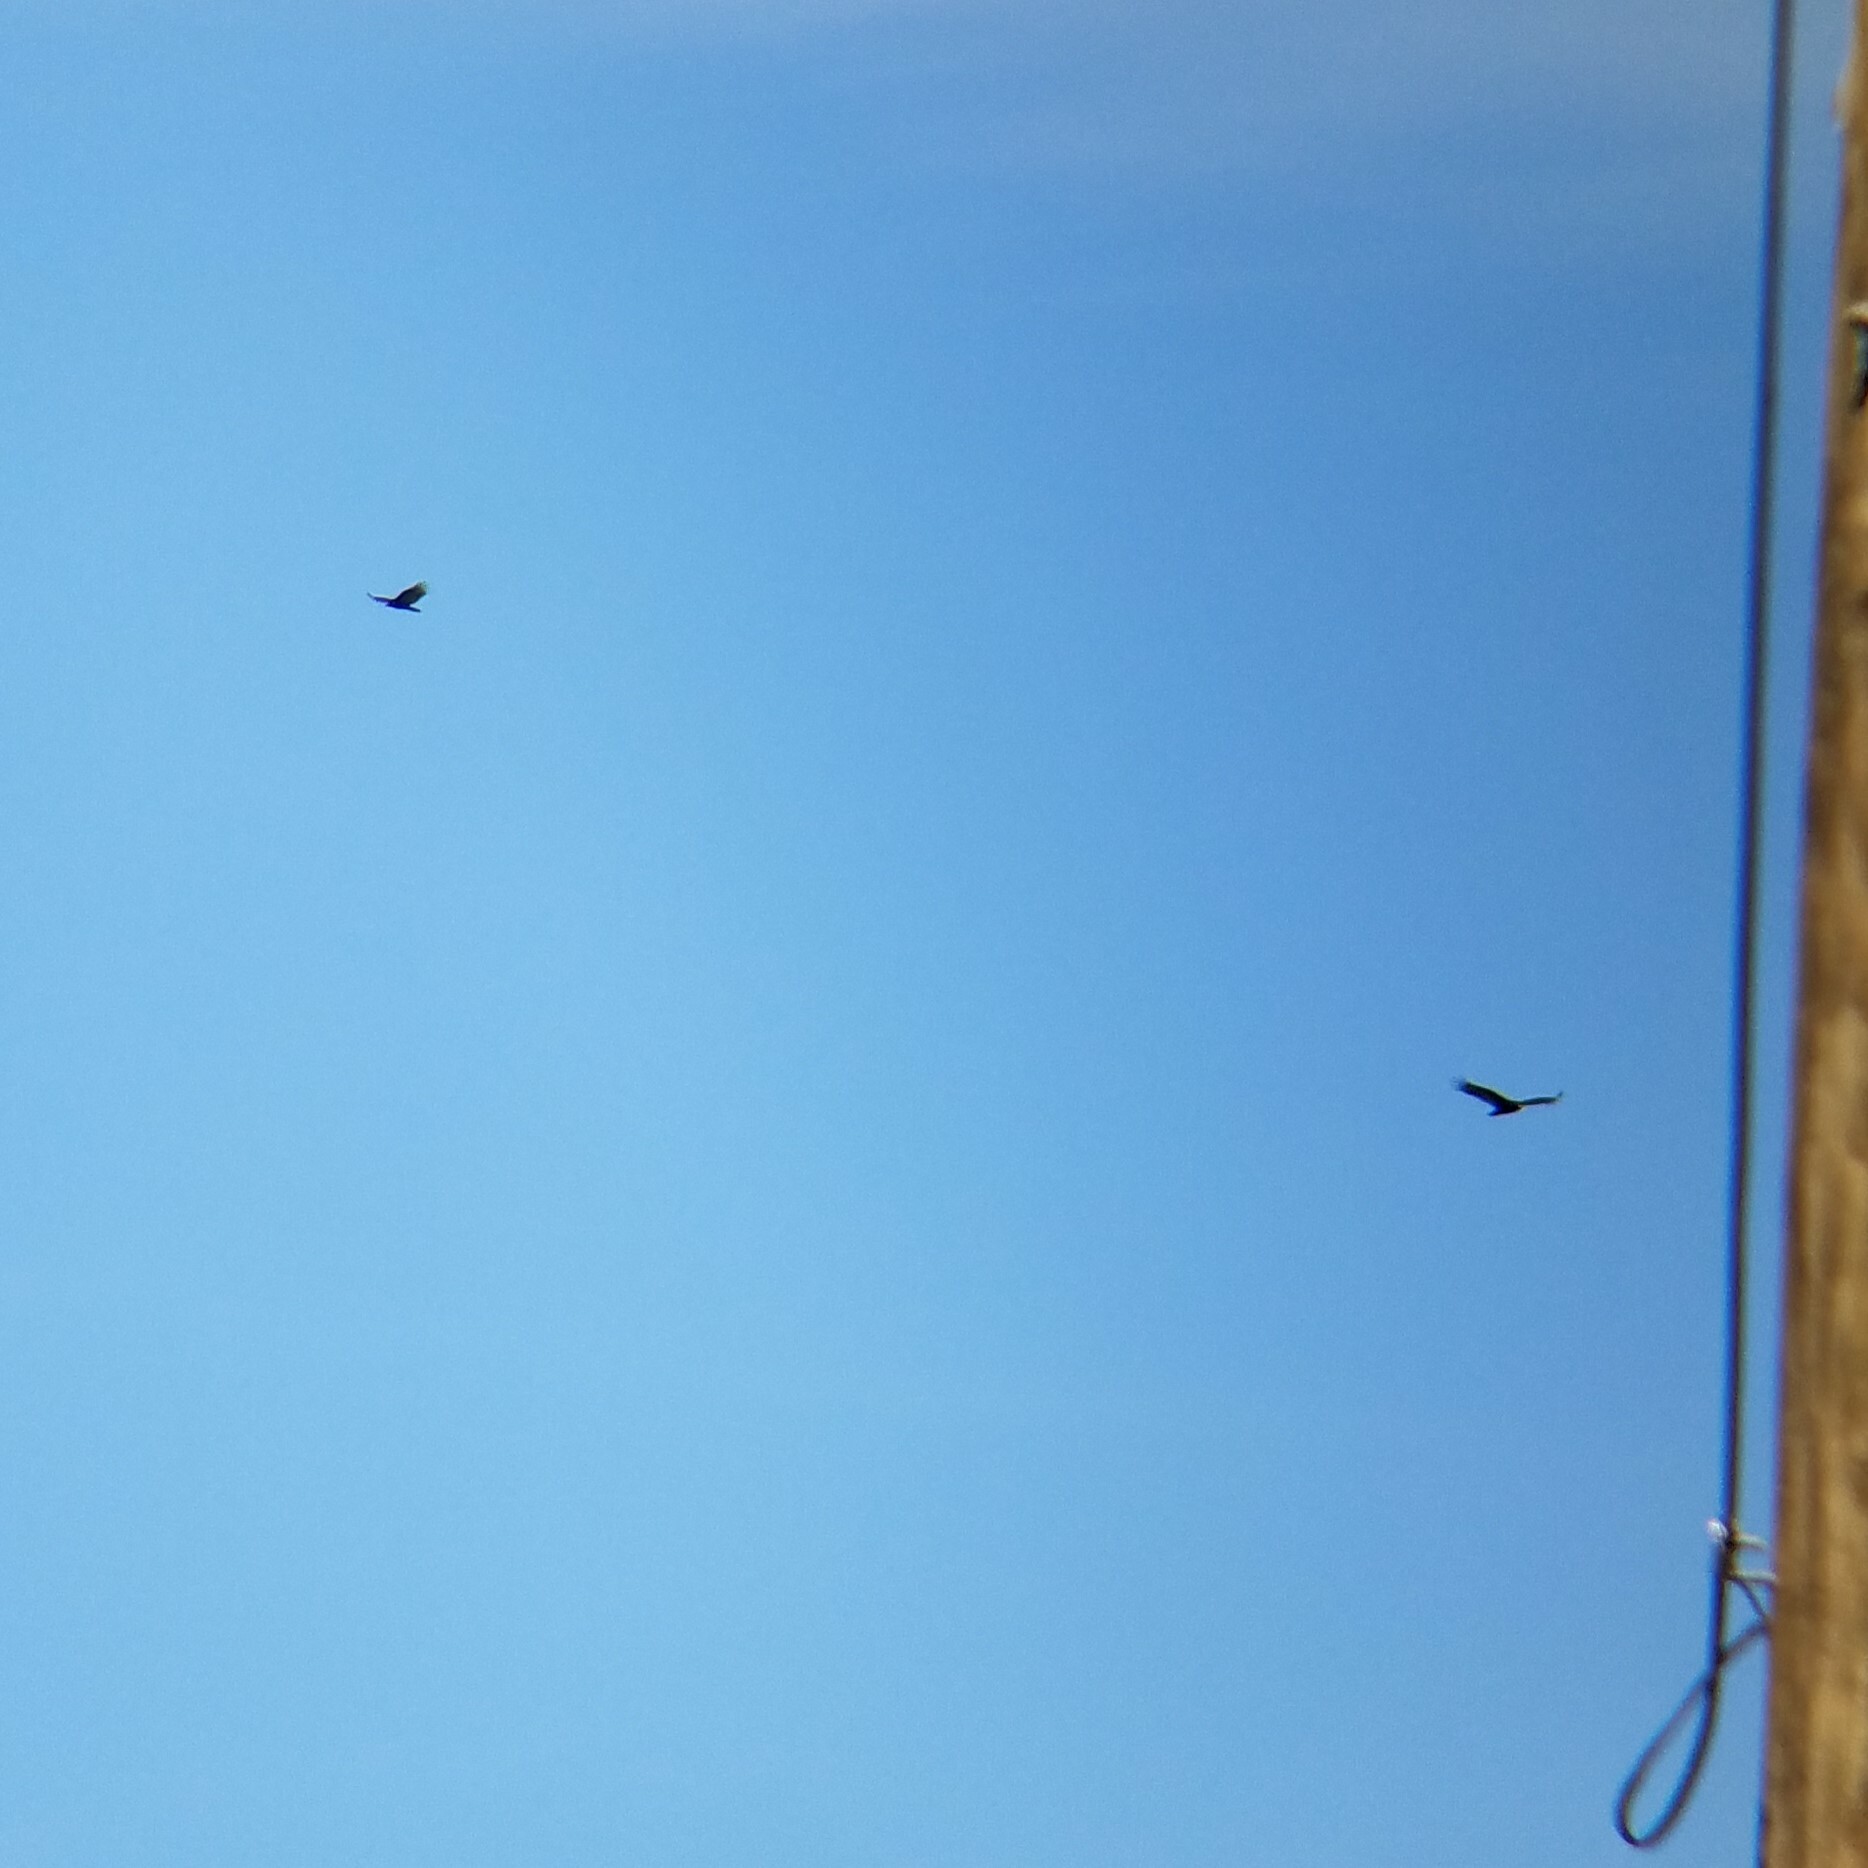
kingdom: Animalia
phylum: Chordata
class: Aves
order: Accipitriformes
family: Cathartidae
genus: Cathartes
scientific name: Cathartes aura
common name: Turkey vulture
